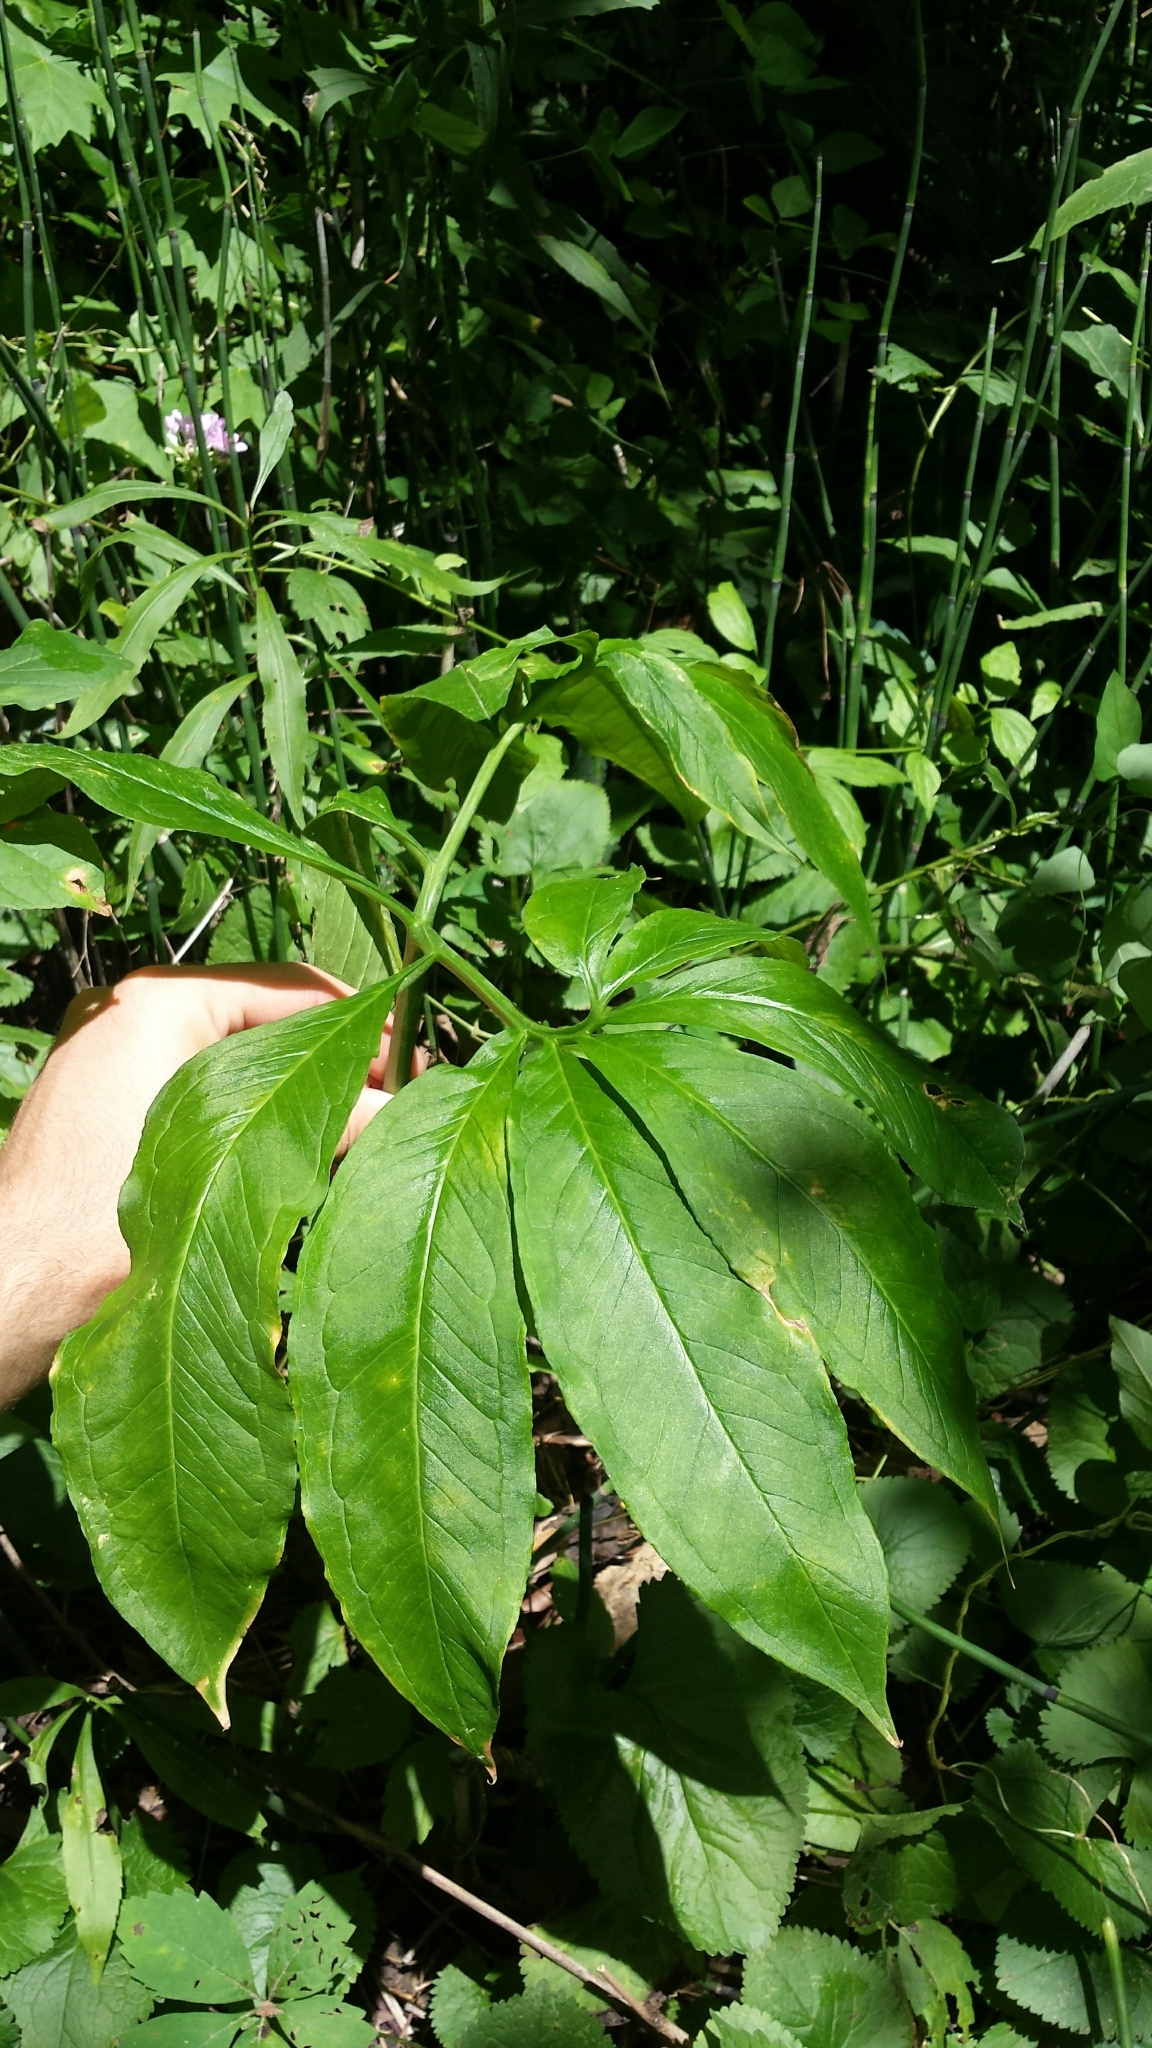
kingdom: Plantae
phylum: Tracheophyta
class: Liliopsida
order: Alismatales
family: Araceae
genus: Arisaema
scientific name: Arisaema dracontium
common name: Dragon-arum
